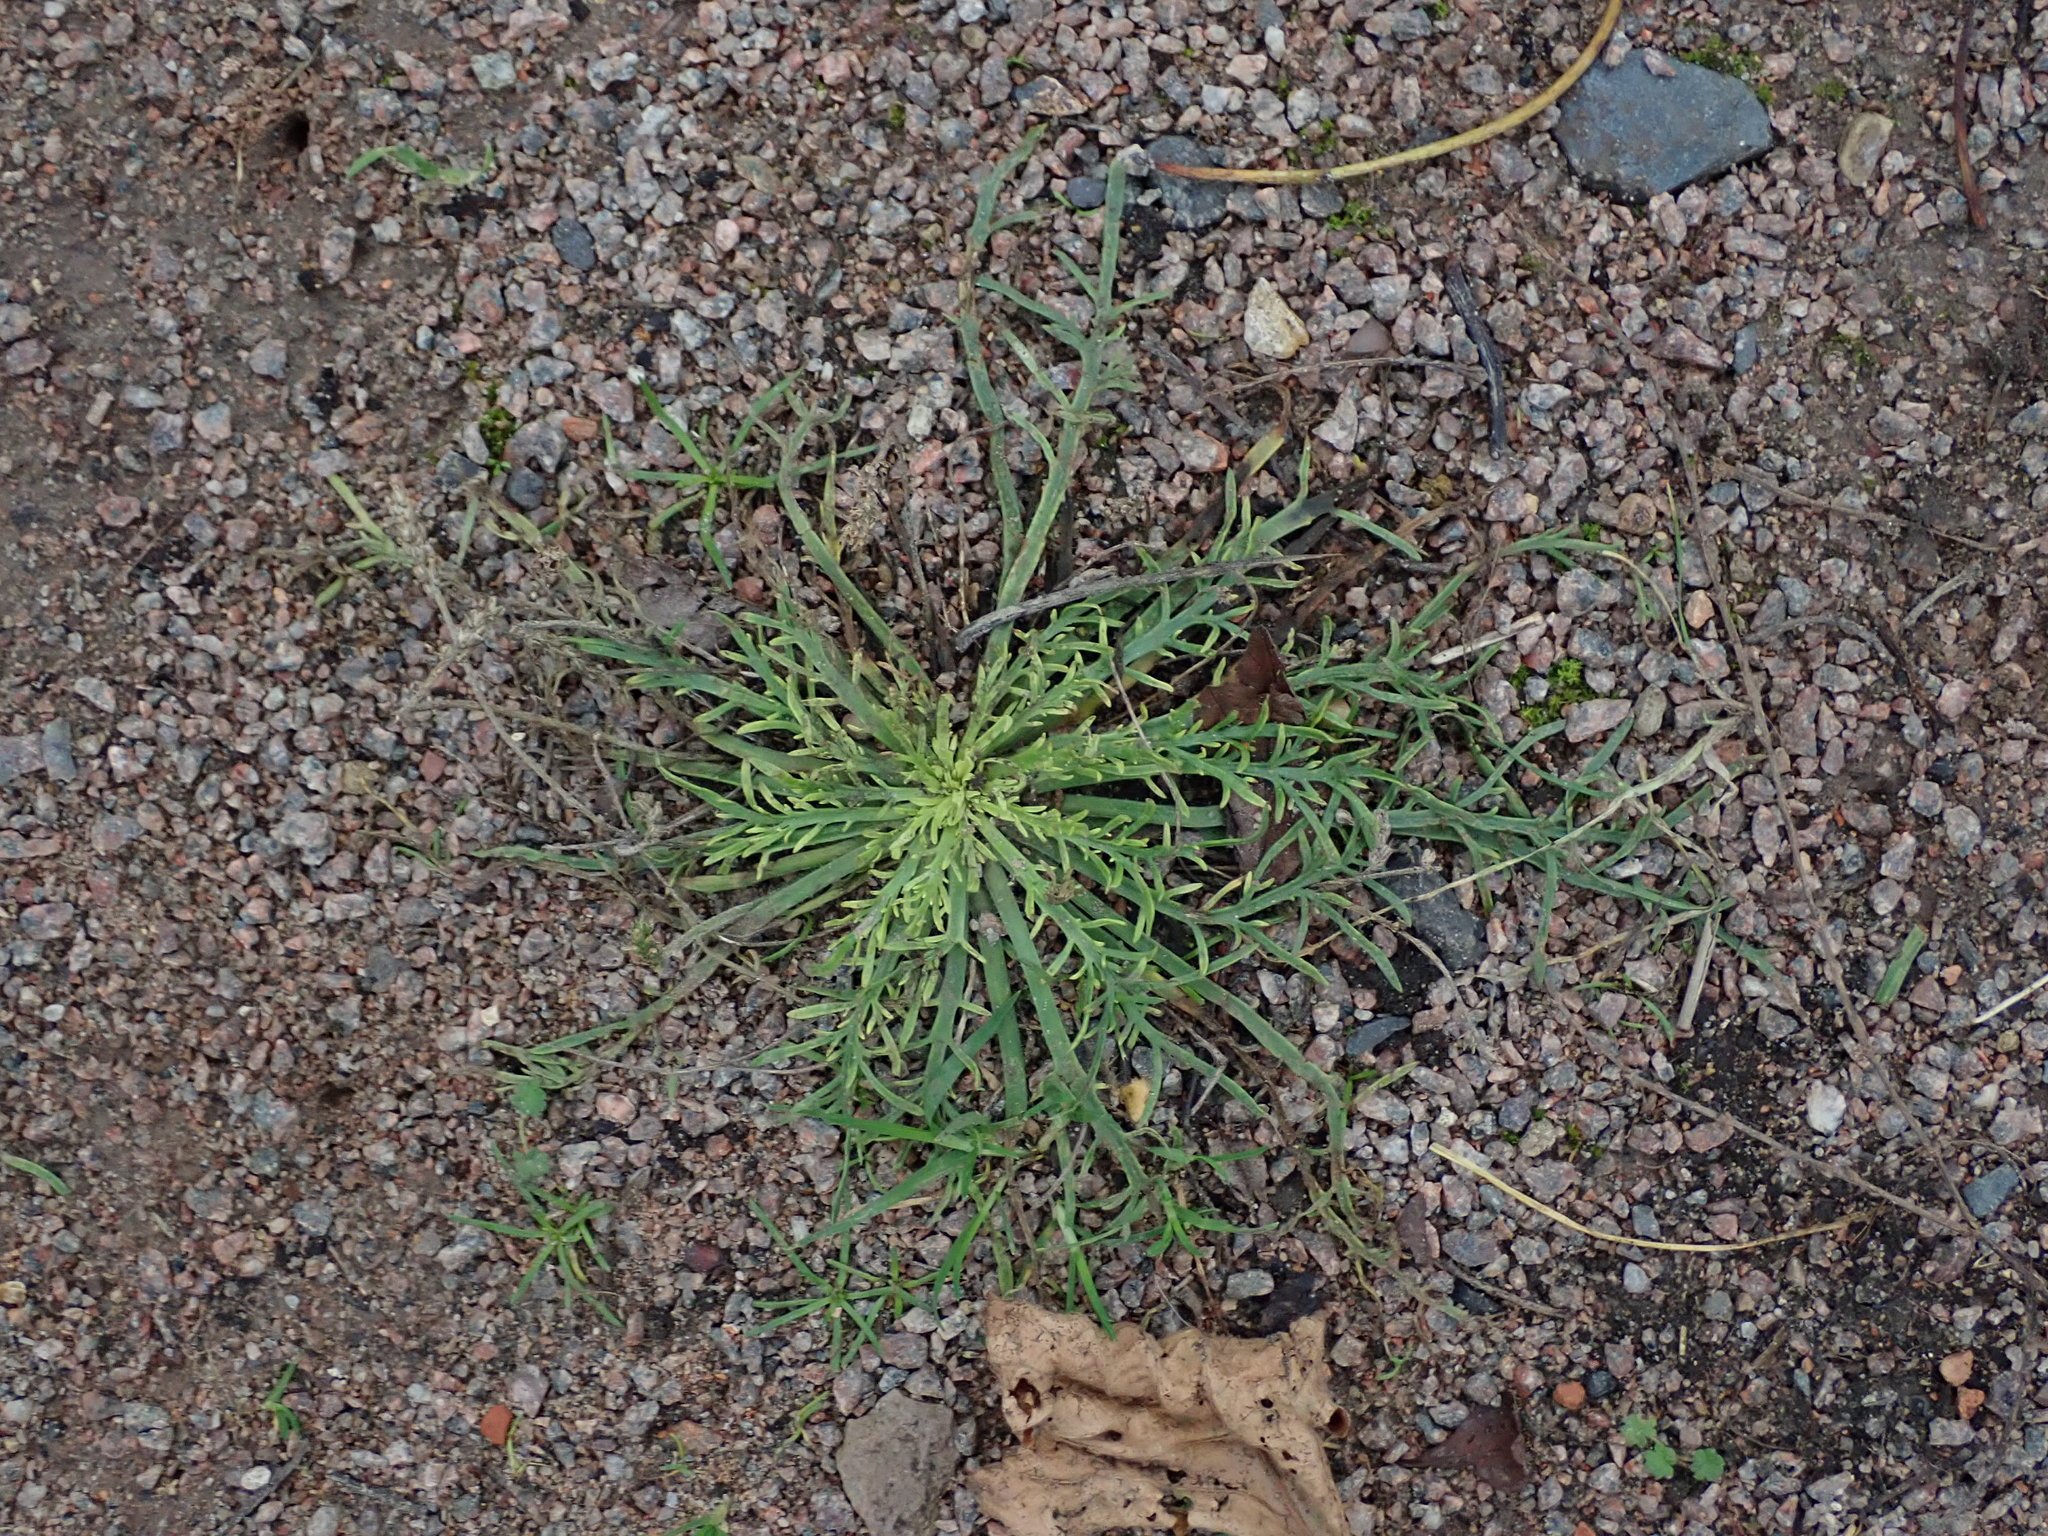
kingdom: Plantae
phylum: Tracheophyta
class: Magnoliopsida
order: Lamiales
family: Plantaginaceae
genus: Plantago
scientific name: Plantago coronopus
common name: Buck's-horn plantain
